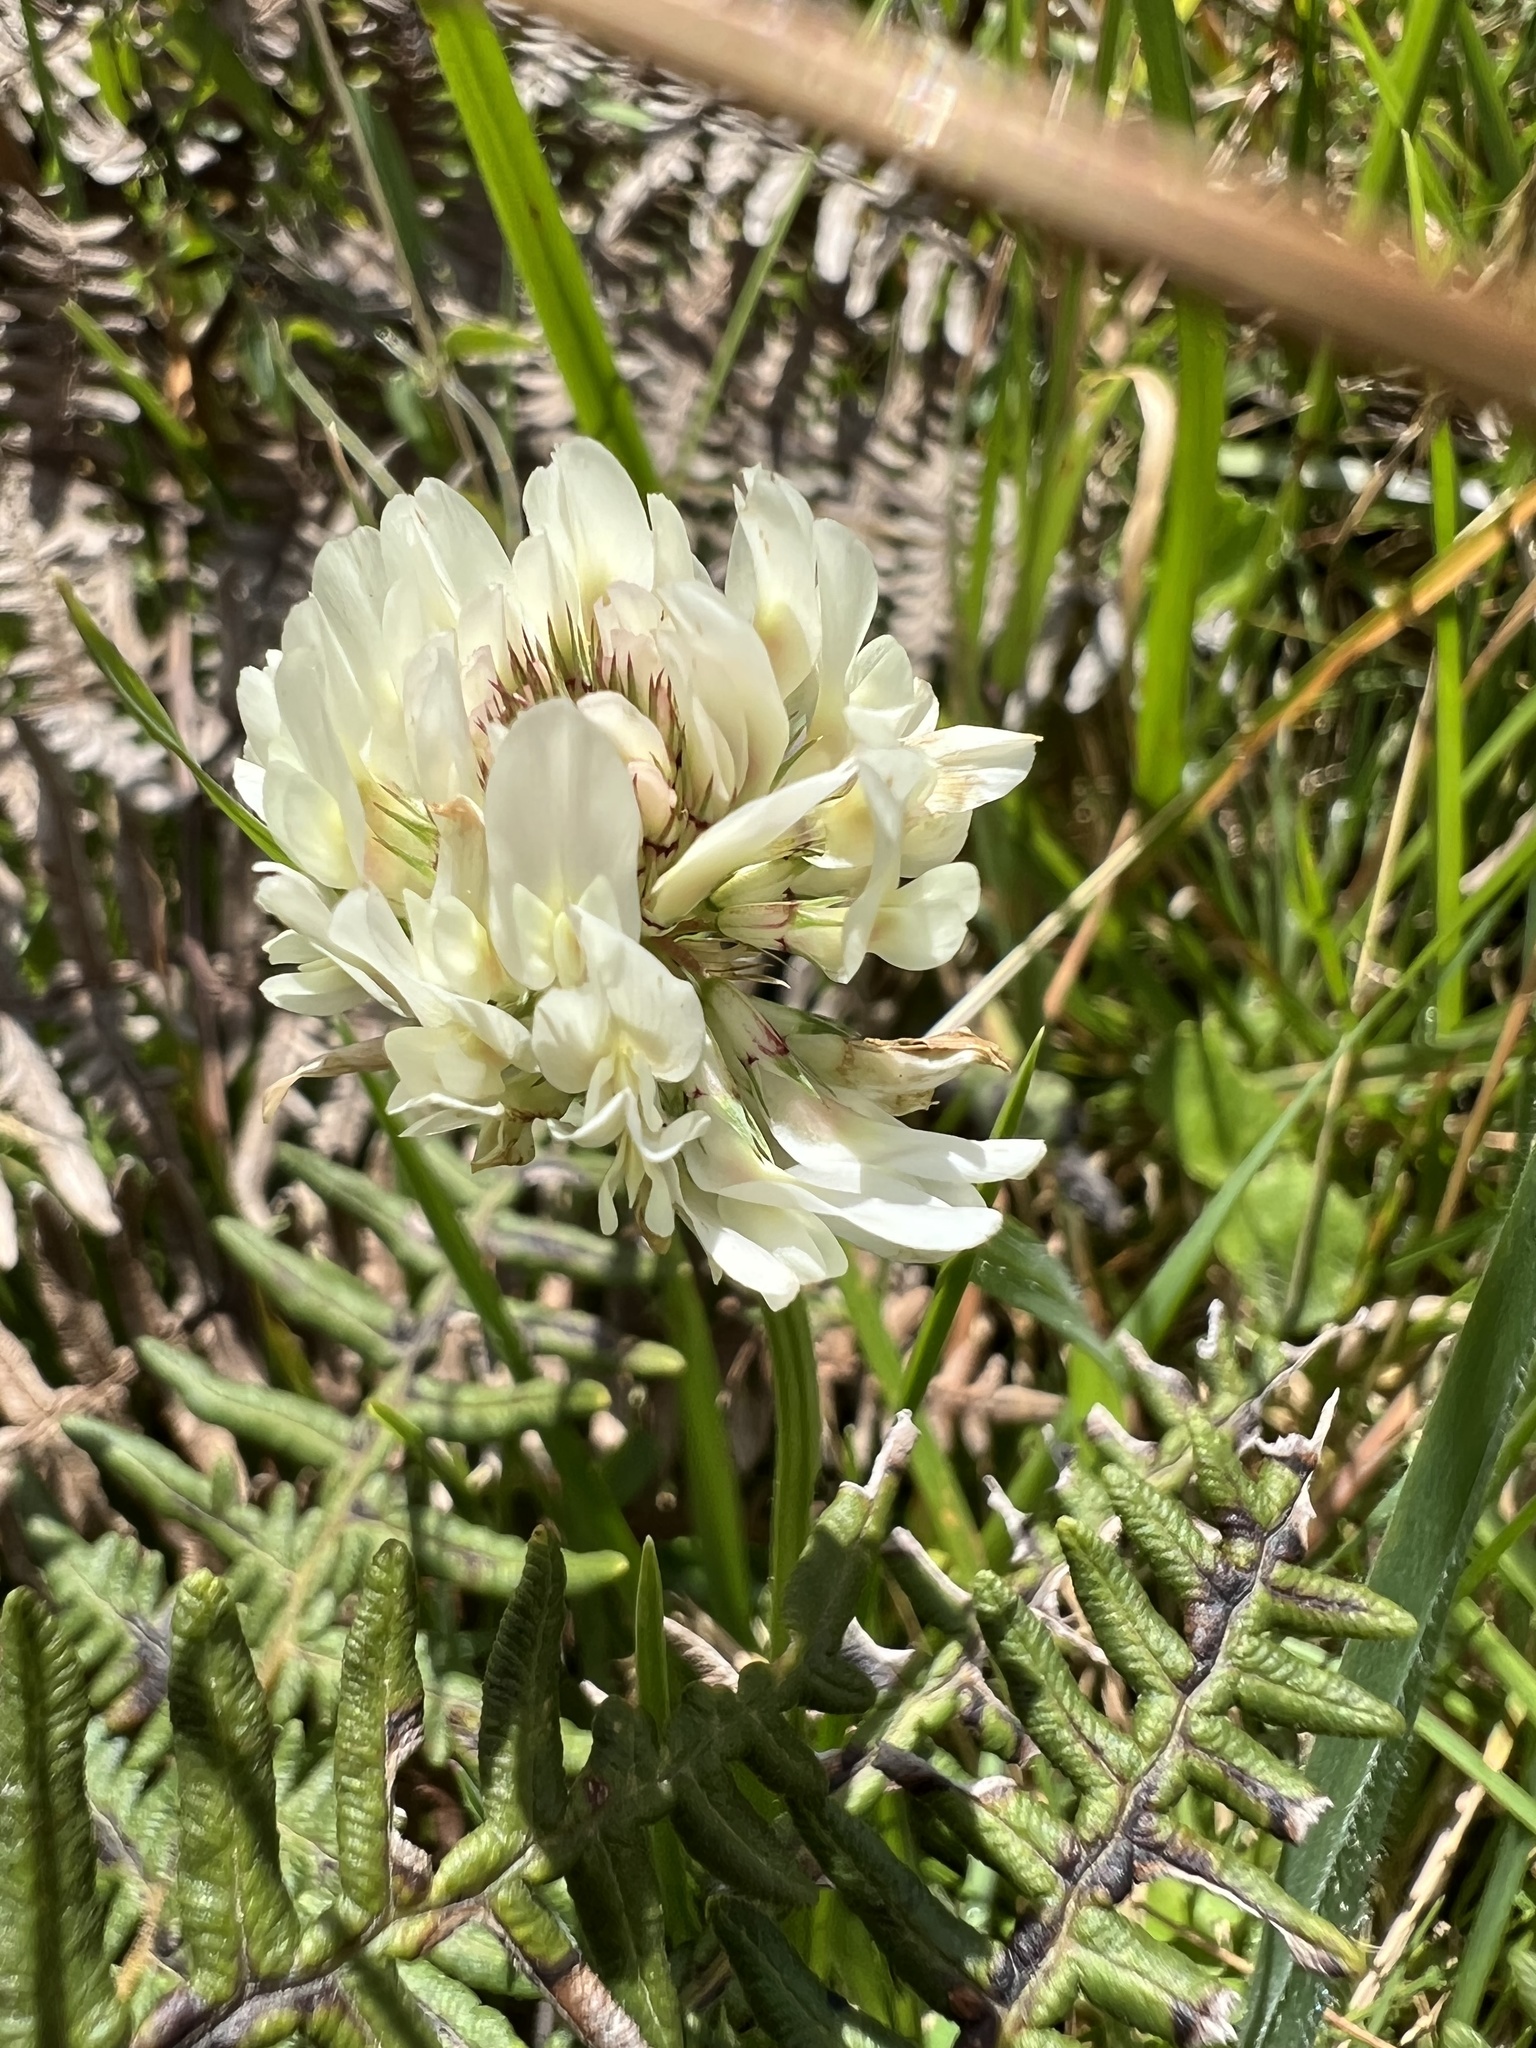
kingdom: Plantae
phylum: Tracheophyta
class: Magnoliopsida
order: Fabales
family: Fabaceae
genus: Trifolium
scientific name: Trifolium repens
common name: White clover
